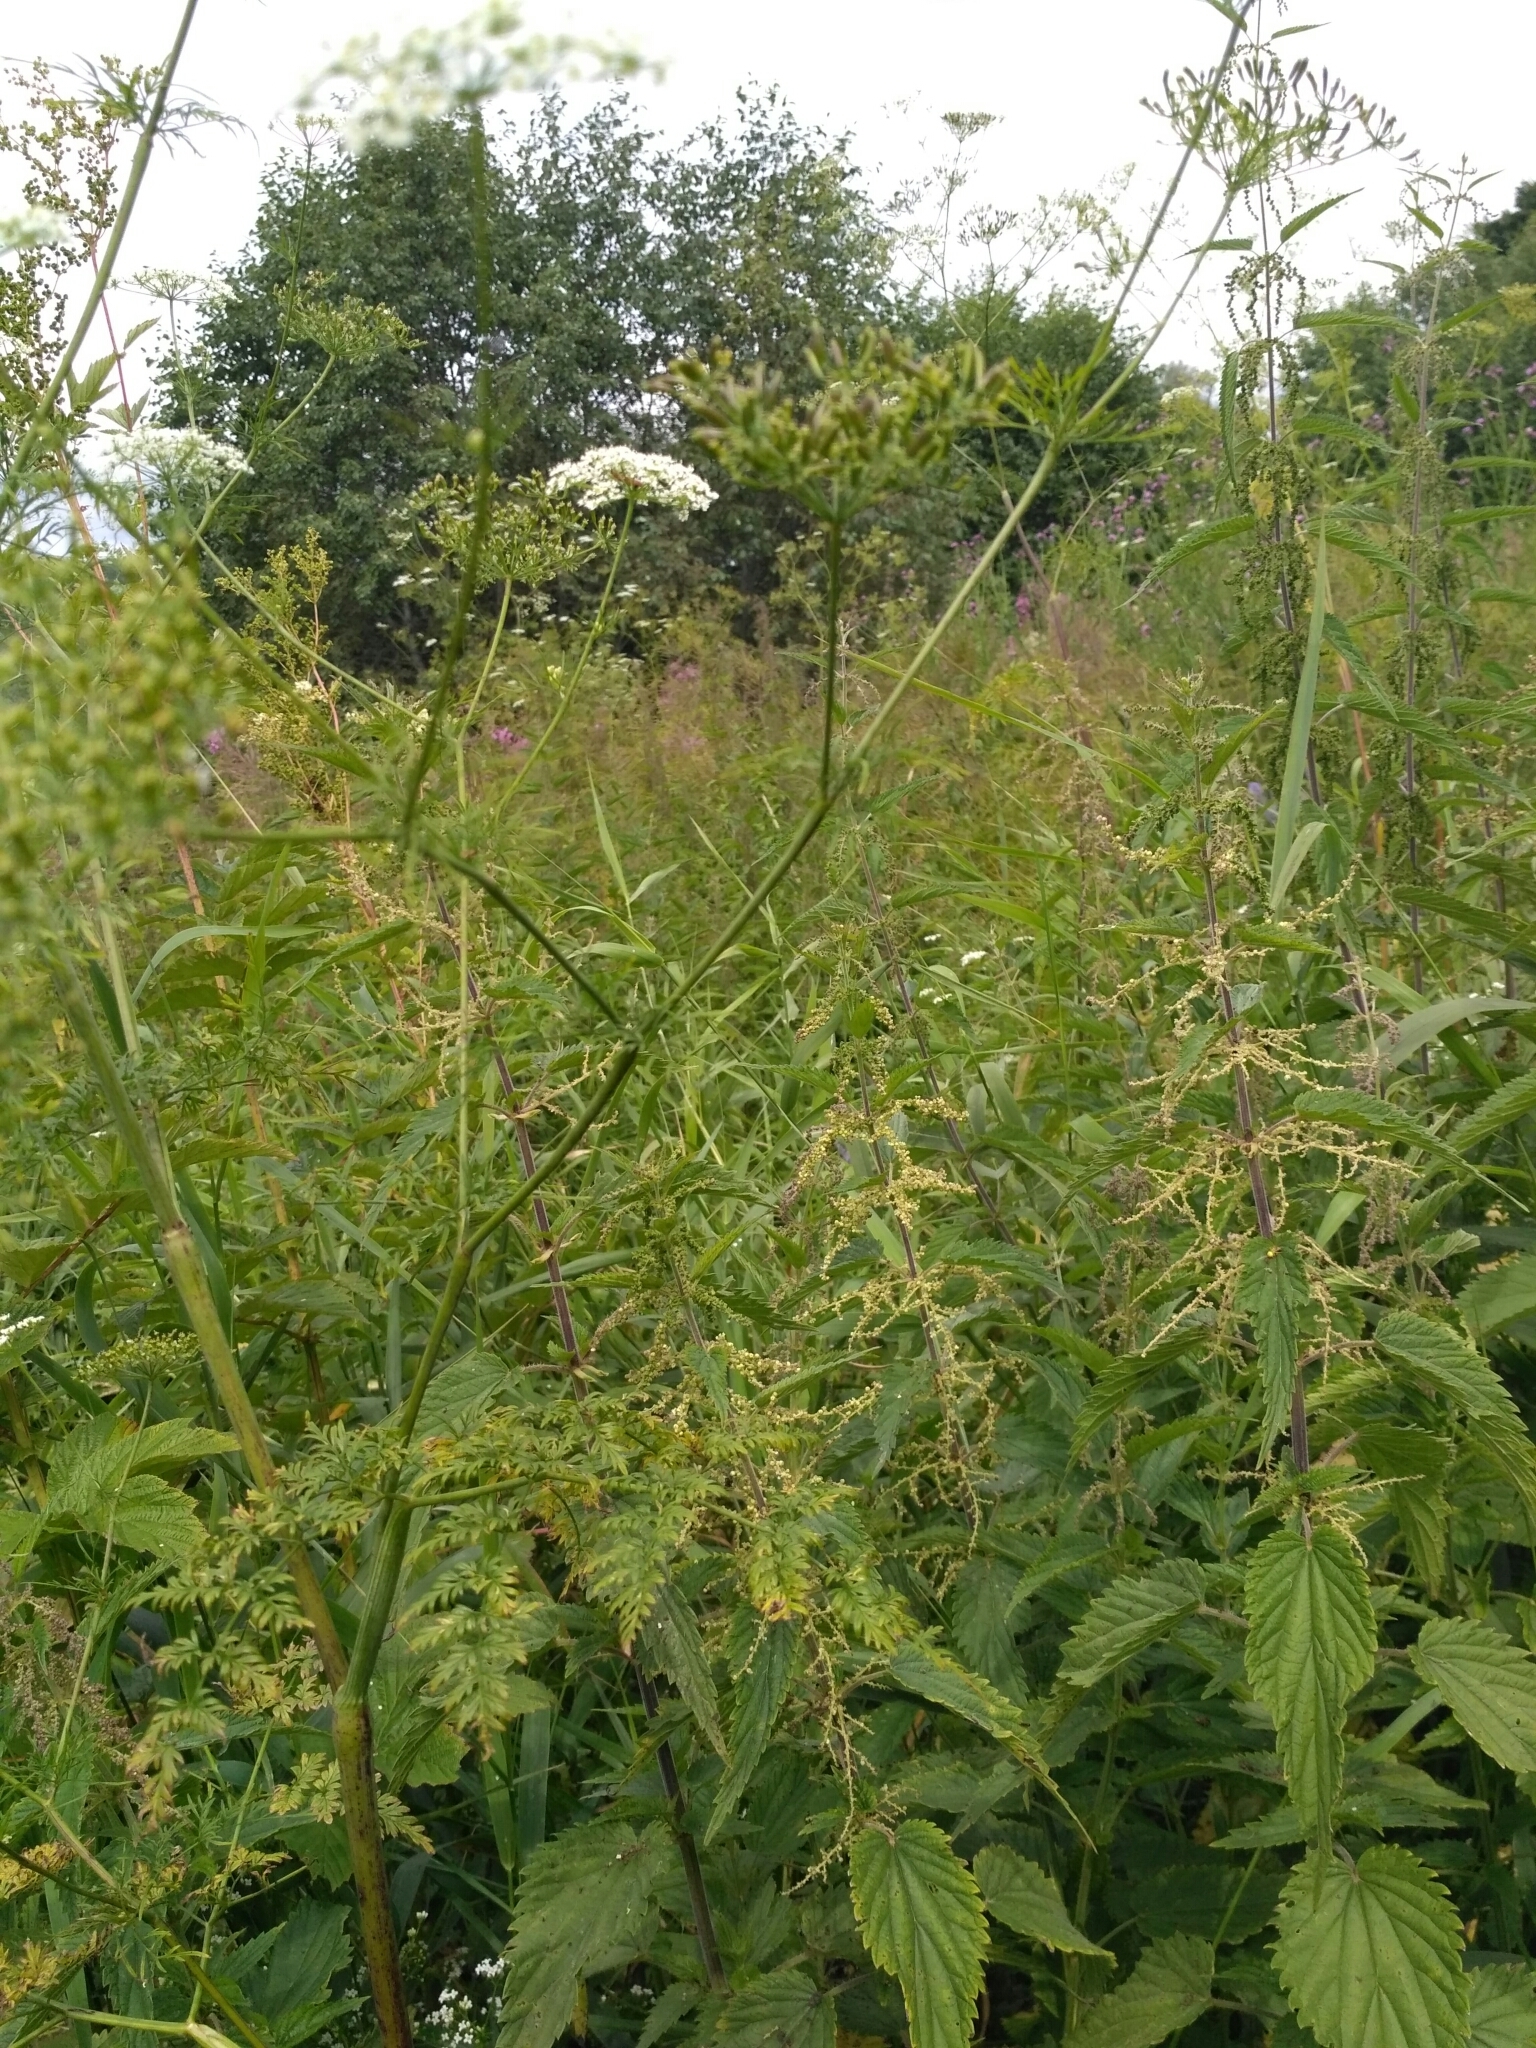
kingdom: Plantae
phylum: Tracheophyta
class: Magnoliopsida
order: Apiales
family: Apiaceae
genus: Chaerophyllum
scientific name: Chaerophyllum prescottii
